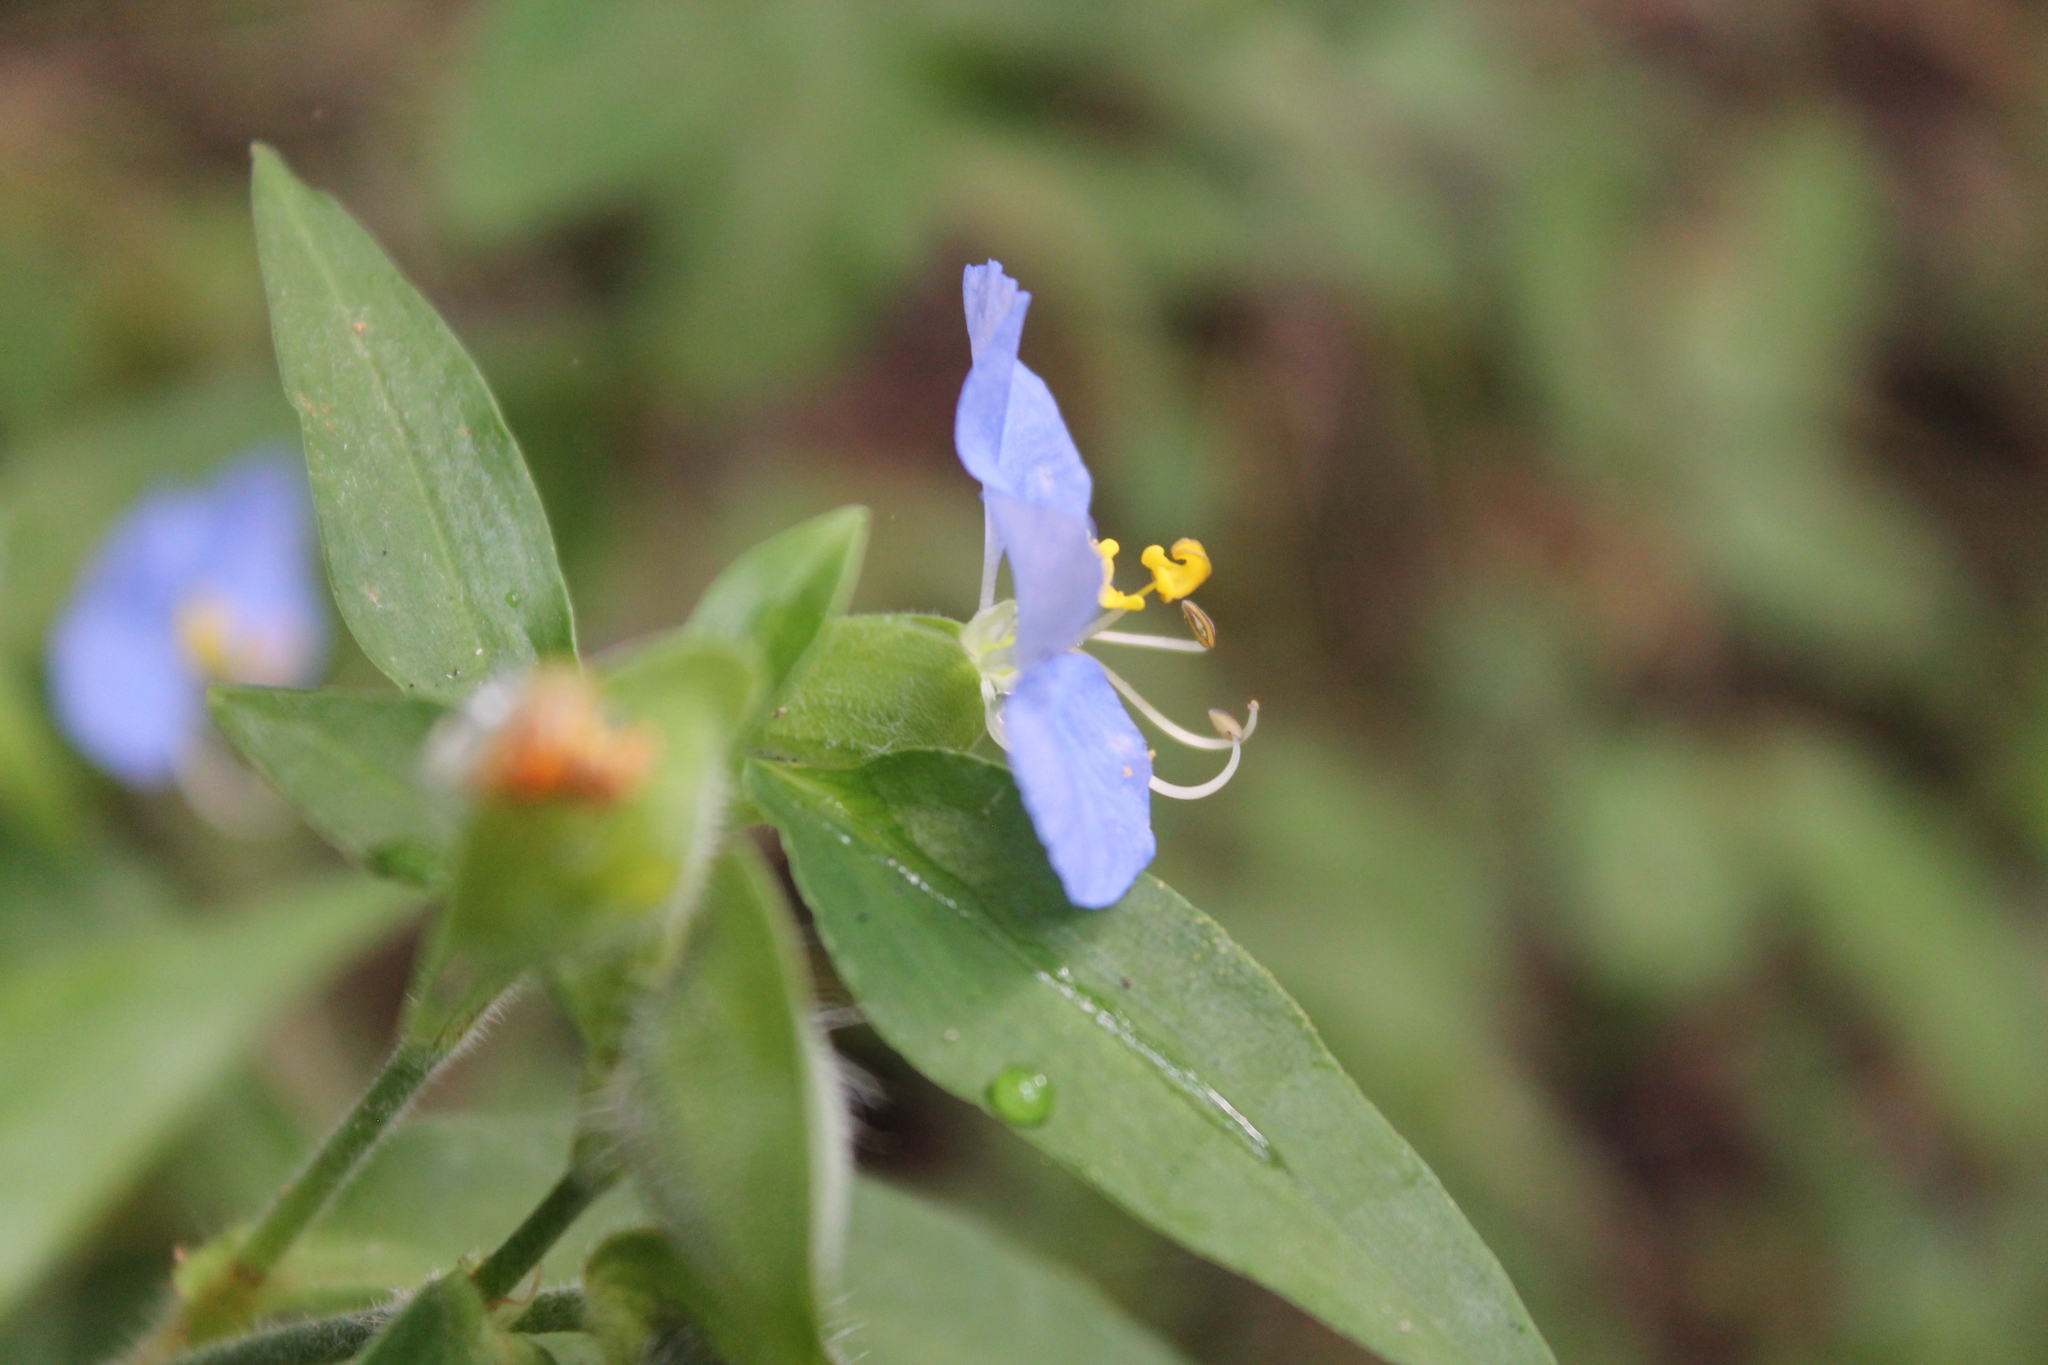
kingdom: Plantae
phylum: Tracheophyta
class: Liliopsida
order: Commelinales
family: Commelinaceae
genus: Commelina
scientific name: Commelina erecta
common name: Blousel blommetjie
